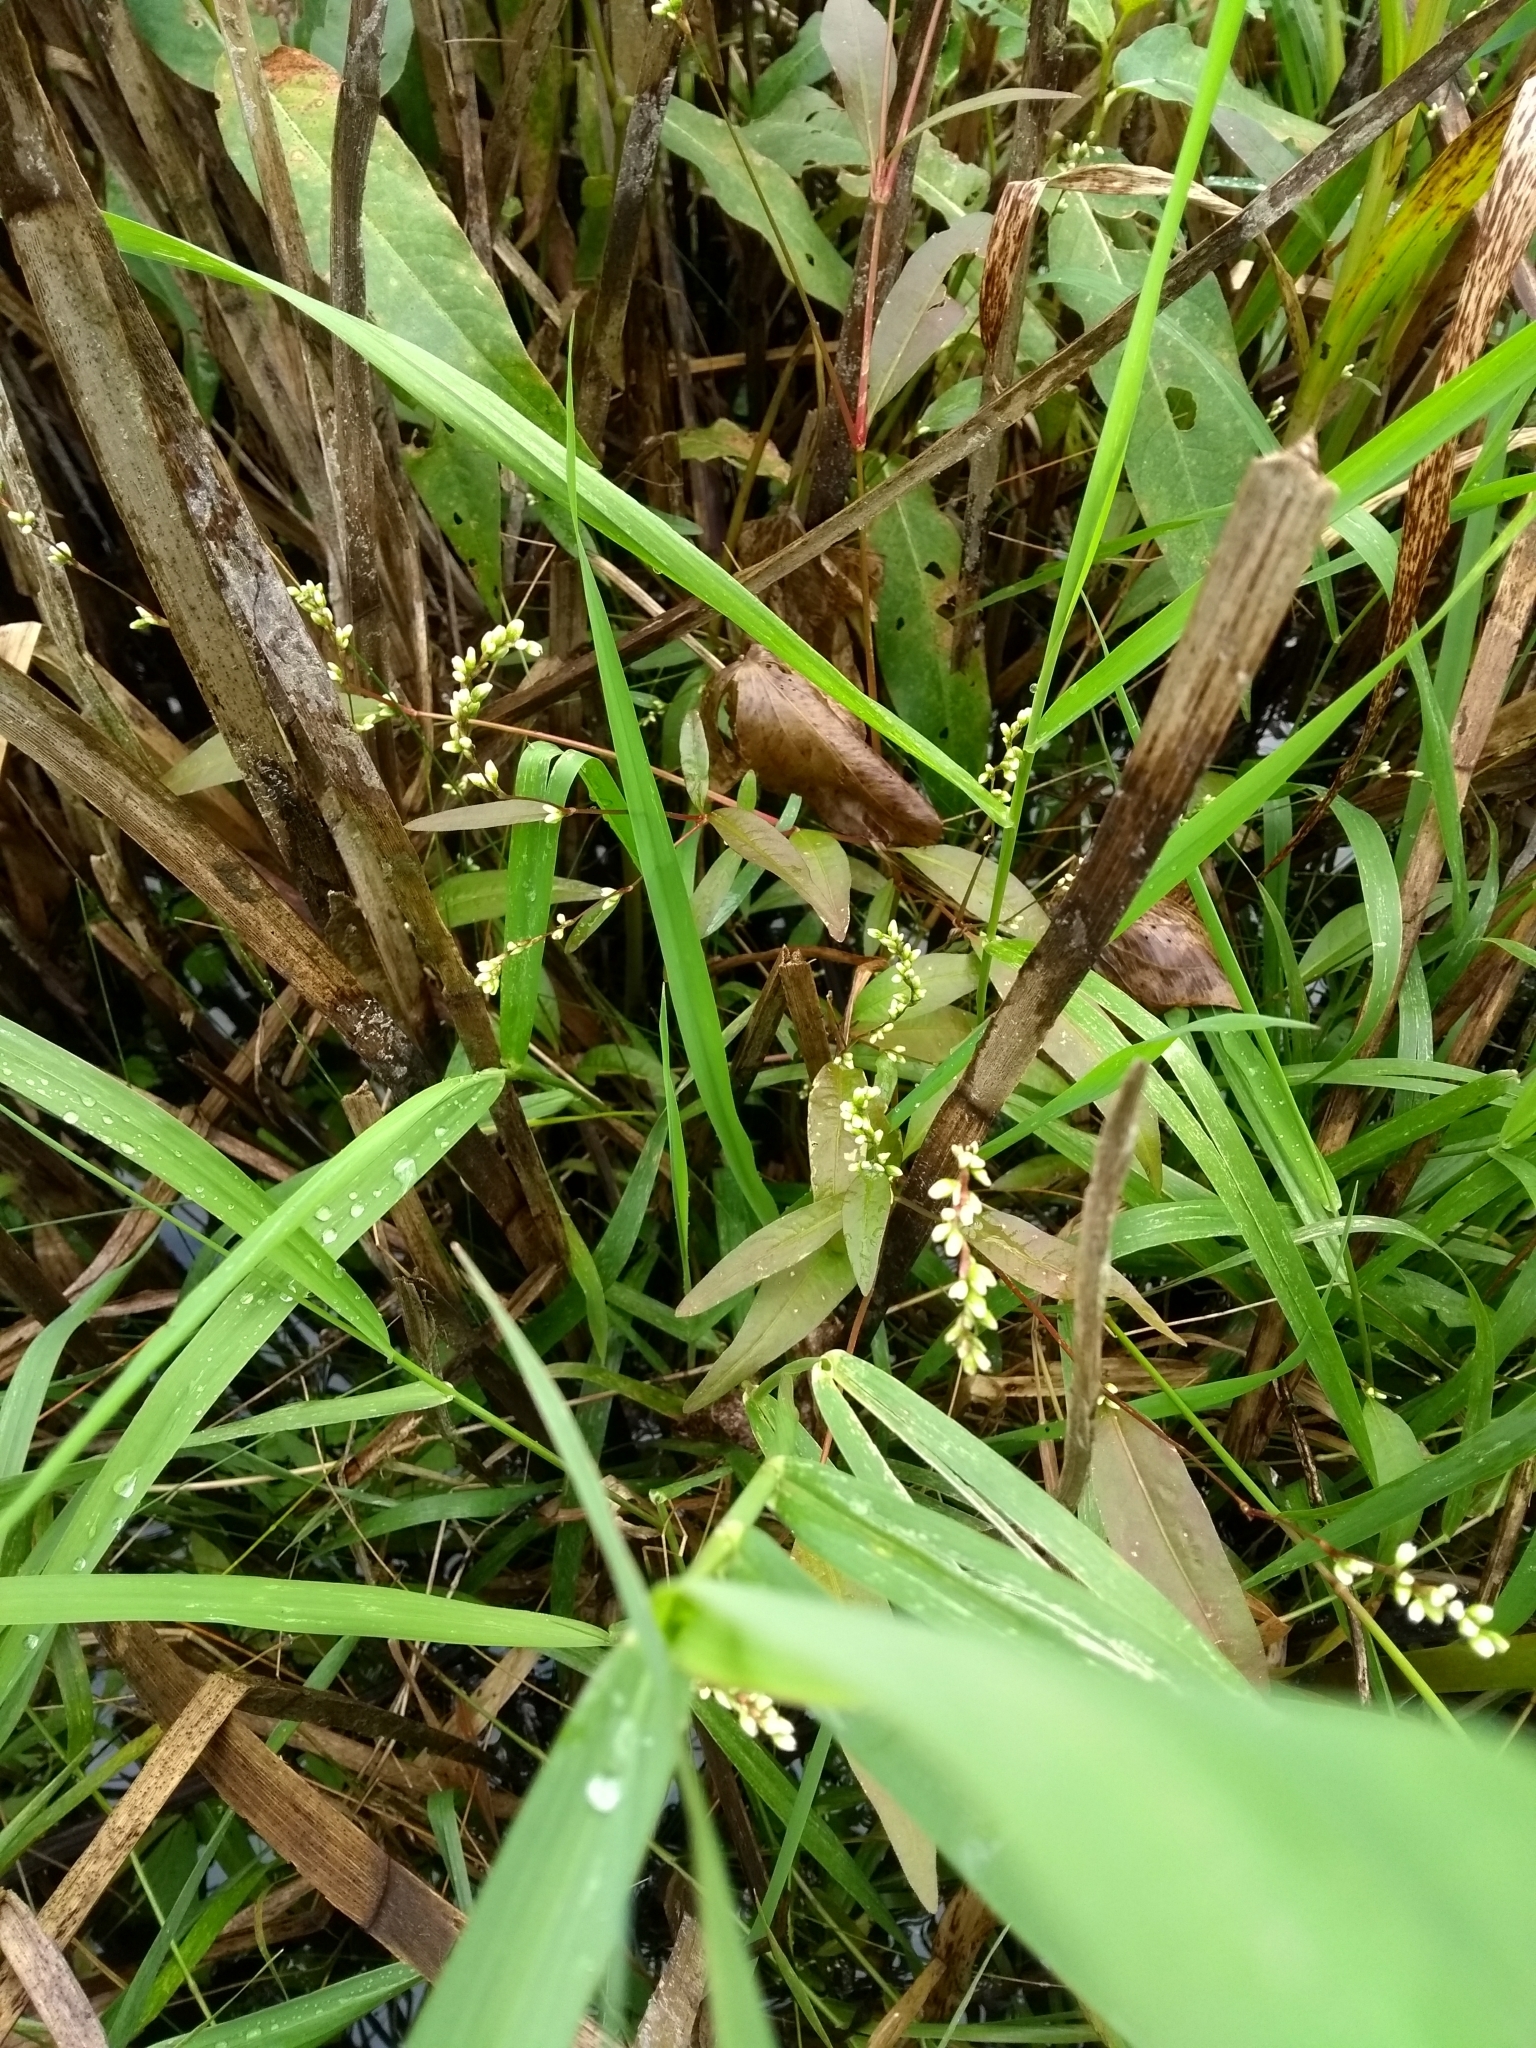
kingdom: Plantae
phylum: Tracheophyta
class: Magnoliopsida
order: Caryophyllales
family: Polygonaceae
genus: Persicaria
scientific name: Persicaria punctata
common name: Dotted smartweed
